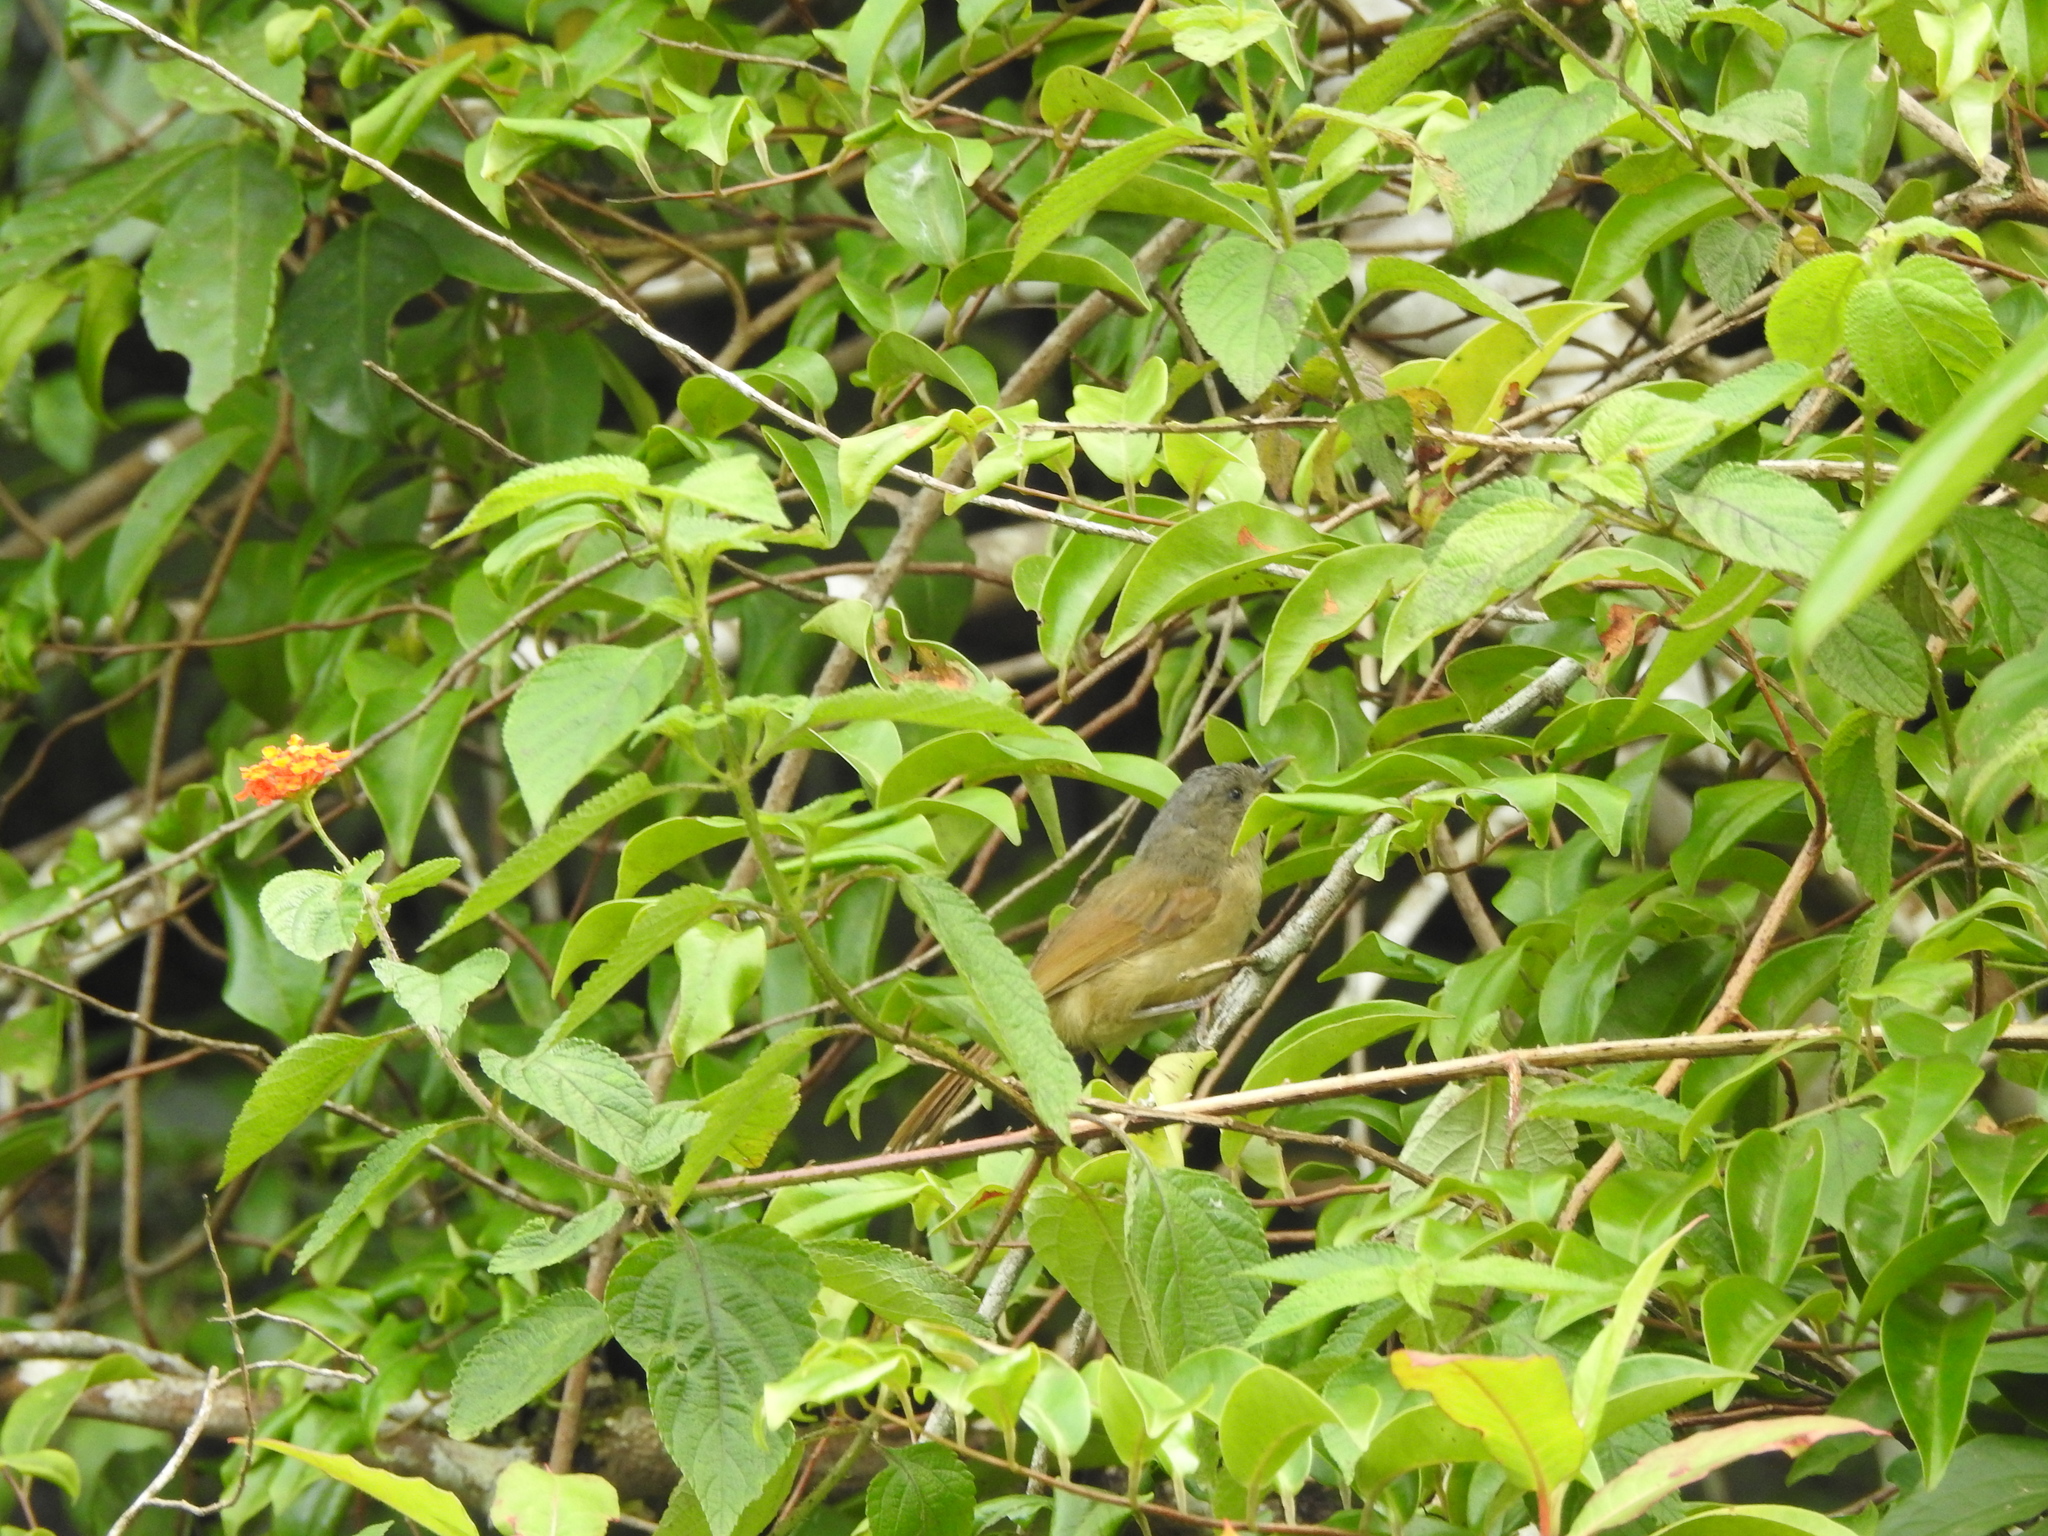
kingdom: Animalia
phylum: Chordata
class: Aves
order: Passeriformes
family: Pellorneidae
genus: Alcippe
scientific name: Alcippe poioicephala
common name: Brown-cheeked fulvetta
